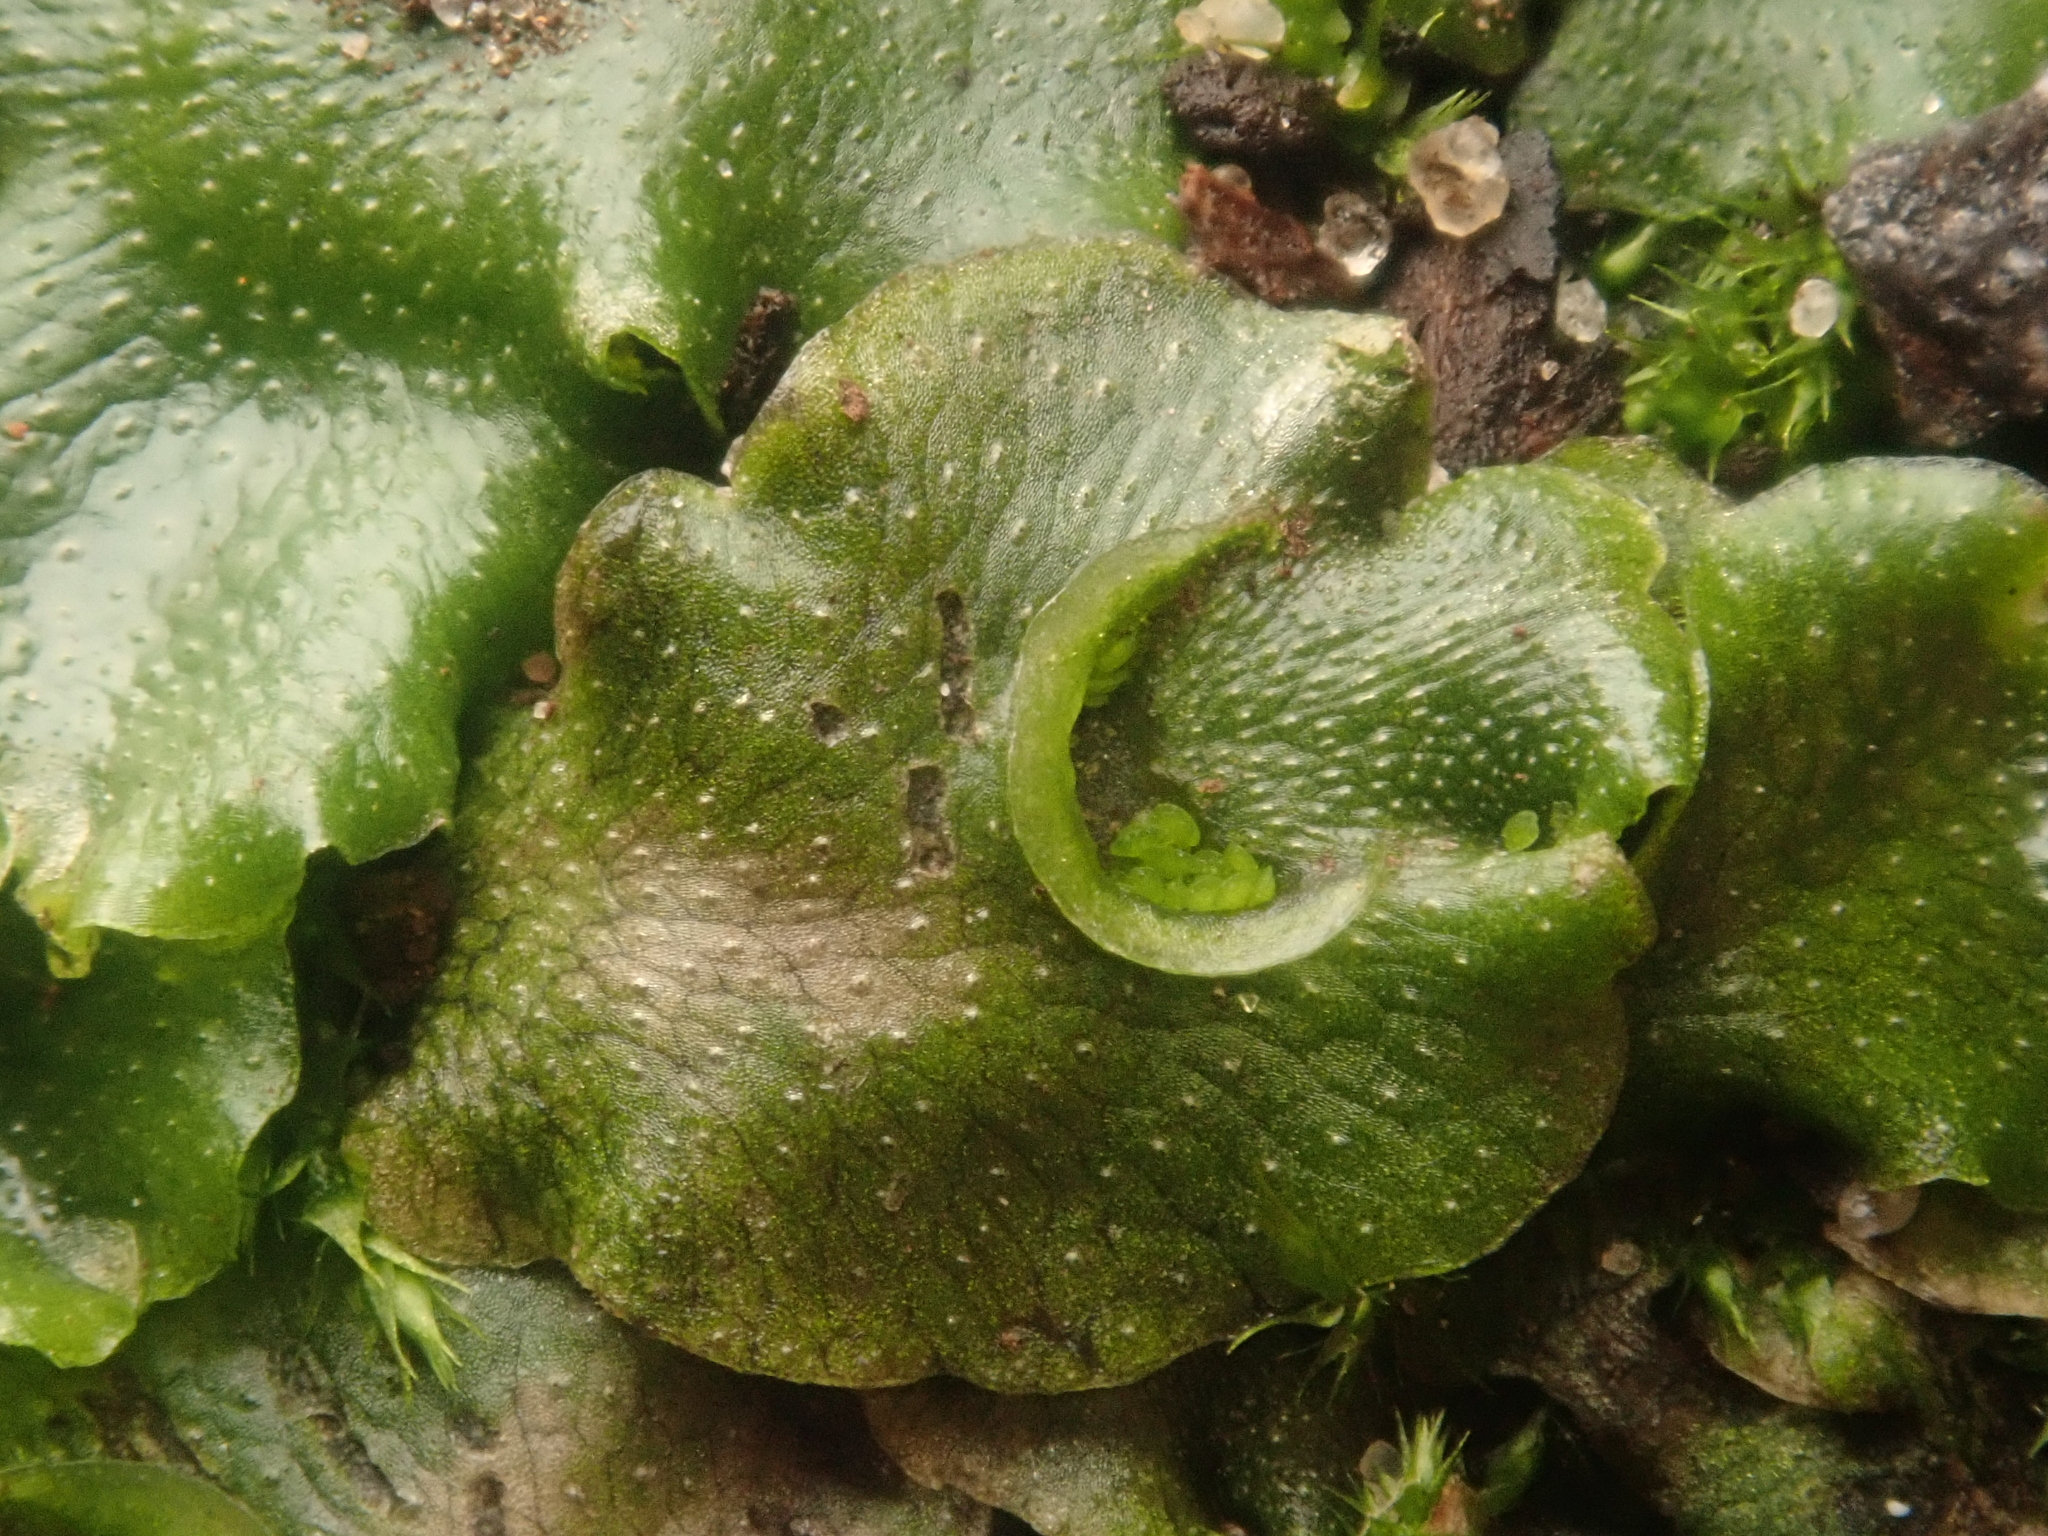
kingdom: Plantae
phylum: Marchantiophyta
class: Marchantiopsida
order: Lunulariales
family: Lunulariaceae
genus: Lunularia
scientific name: Lunularia cruciata
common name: Crescent-cup liverwort
